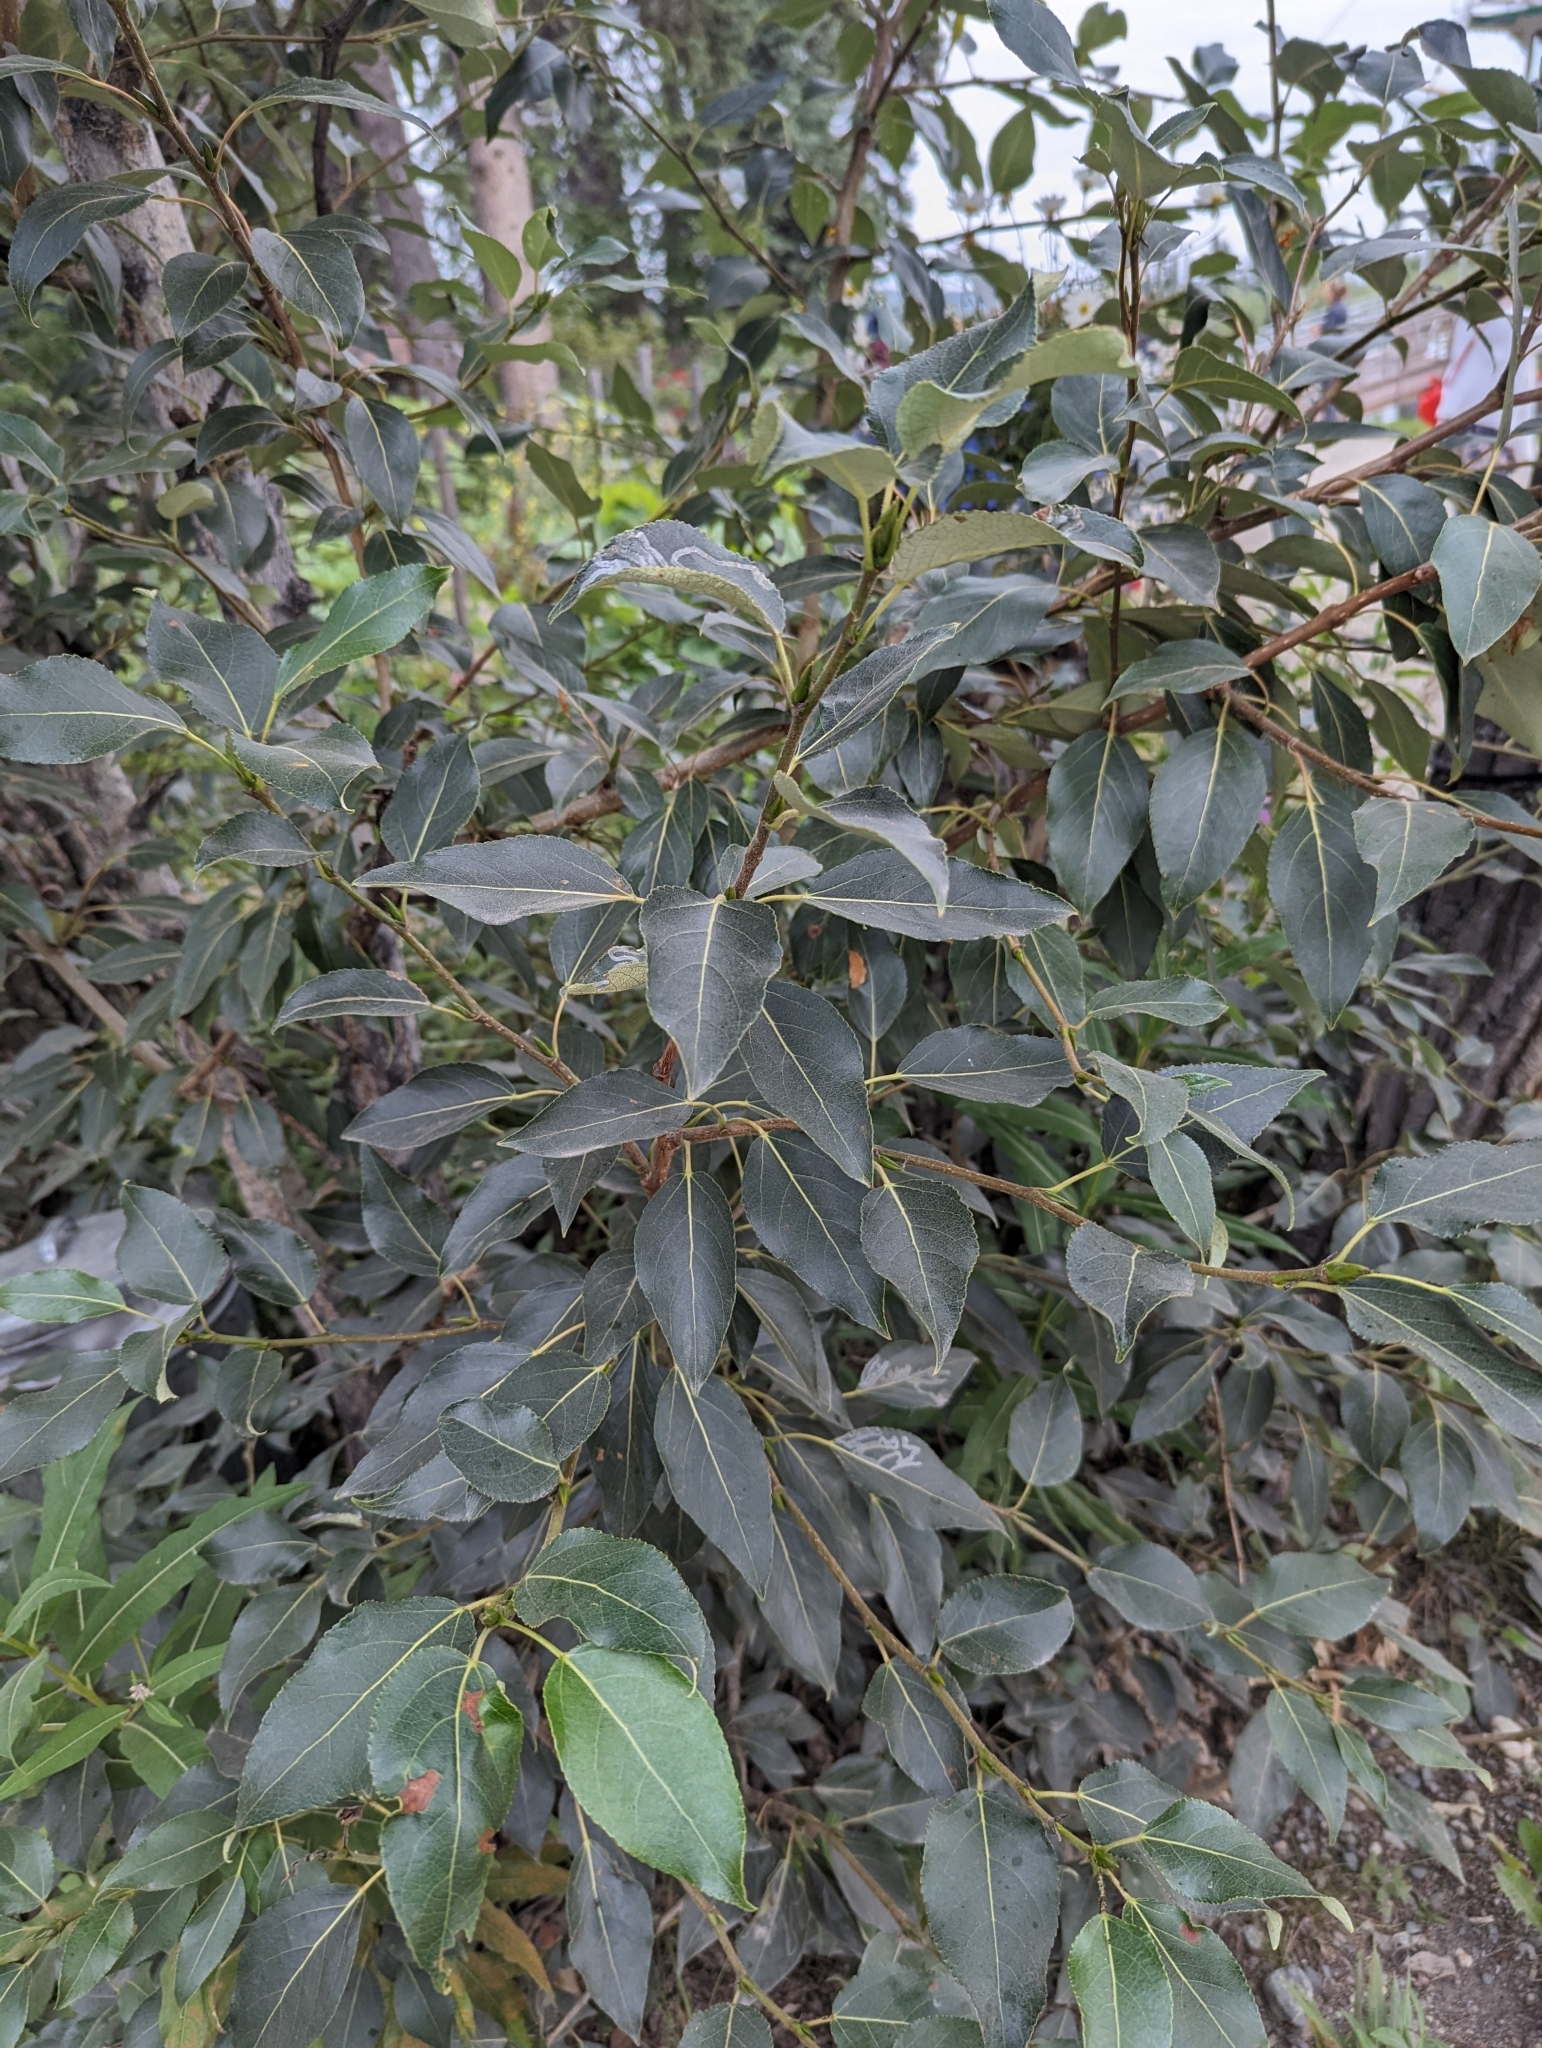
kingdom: Plantae
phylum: Tracheophyta
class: Magnoliopsida
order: Malpighiales
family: Salicaceae
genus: Populus
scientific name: Populus balsamifera
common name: Balsam poplar
